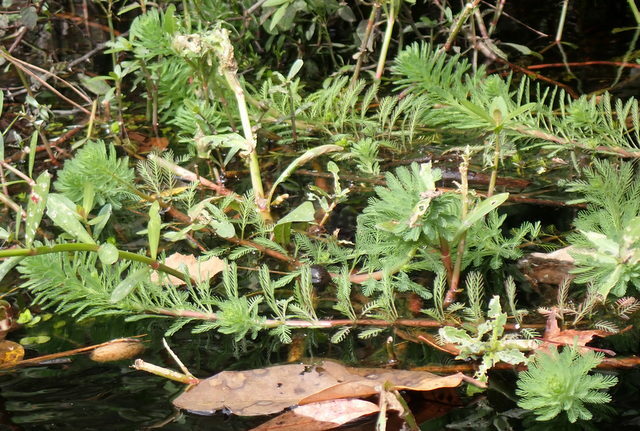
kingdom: Plantae
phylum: Tracheophyta
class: Magnoliopsida
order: Saxifragales
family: Haloragaceae
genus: Myriophyllum
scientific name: Myriophyllum aquaticum
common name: Parrot's feather
